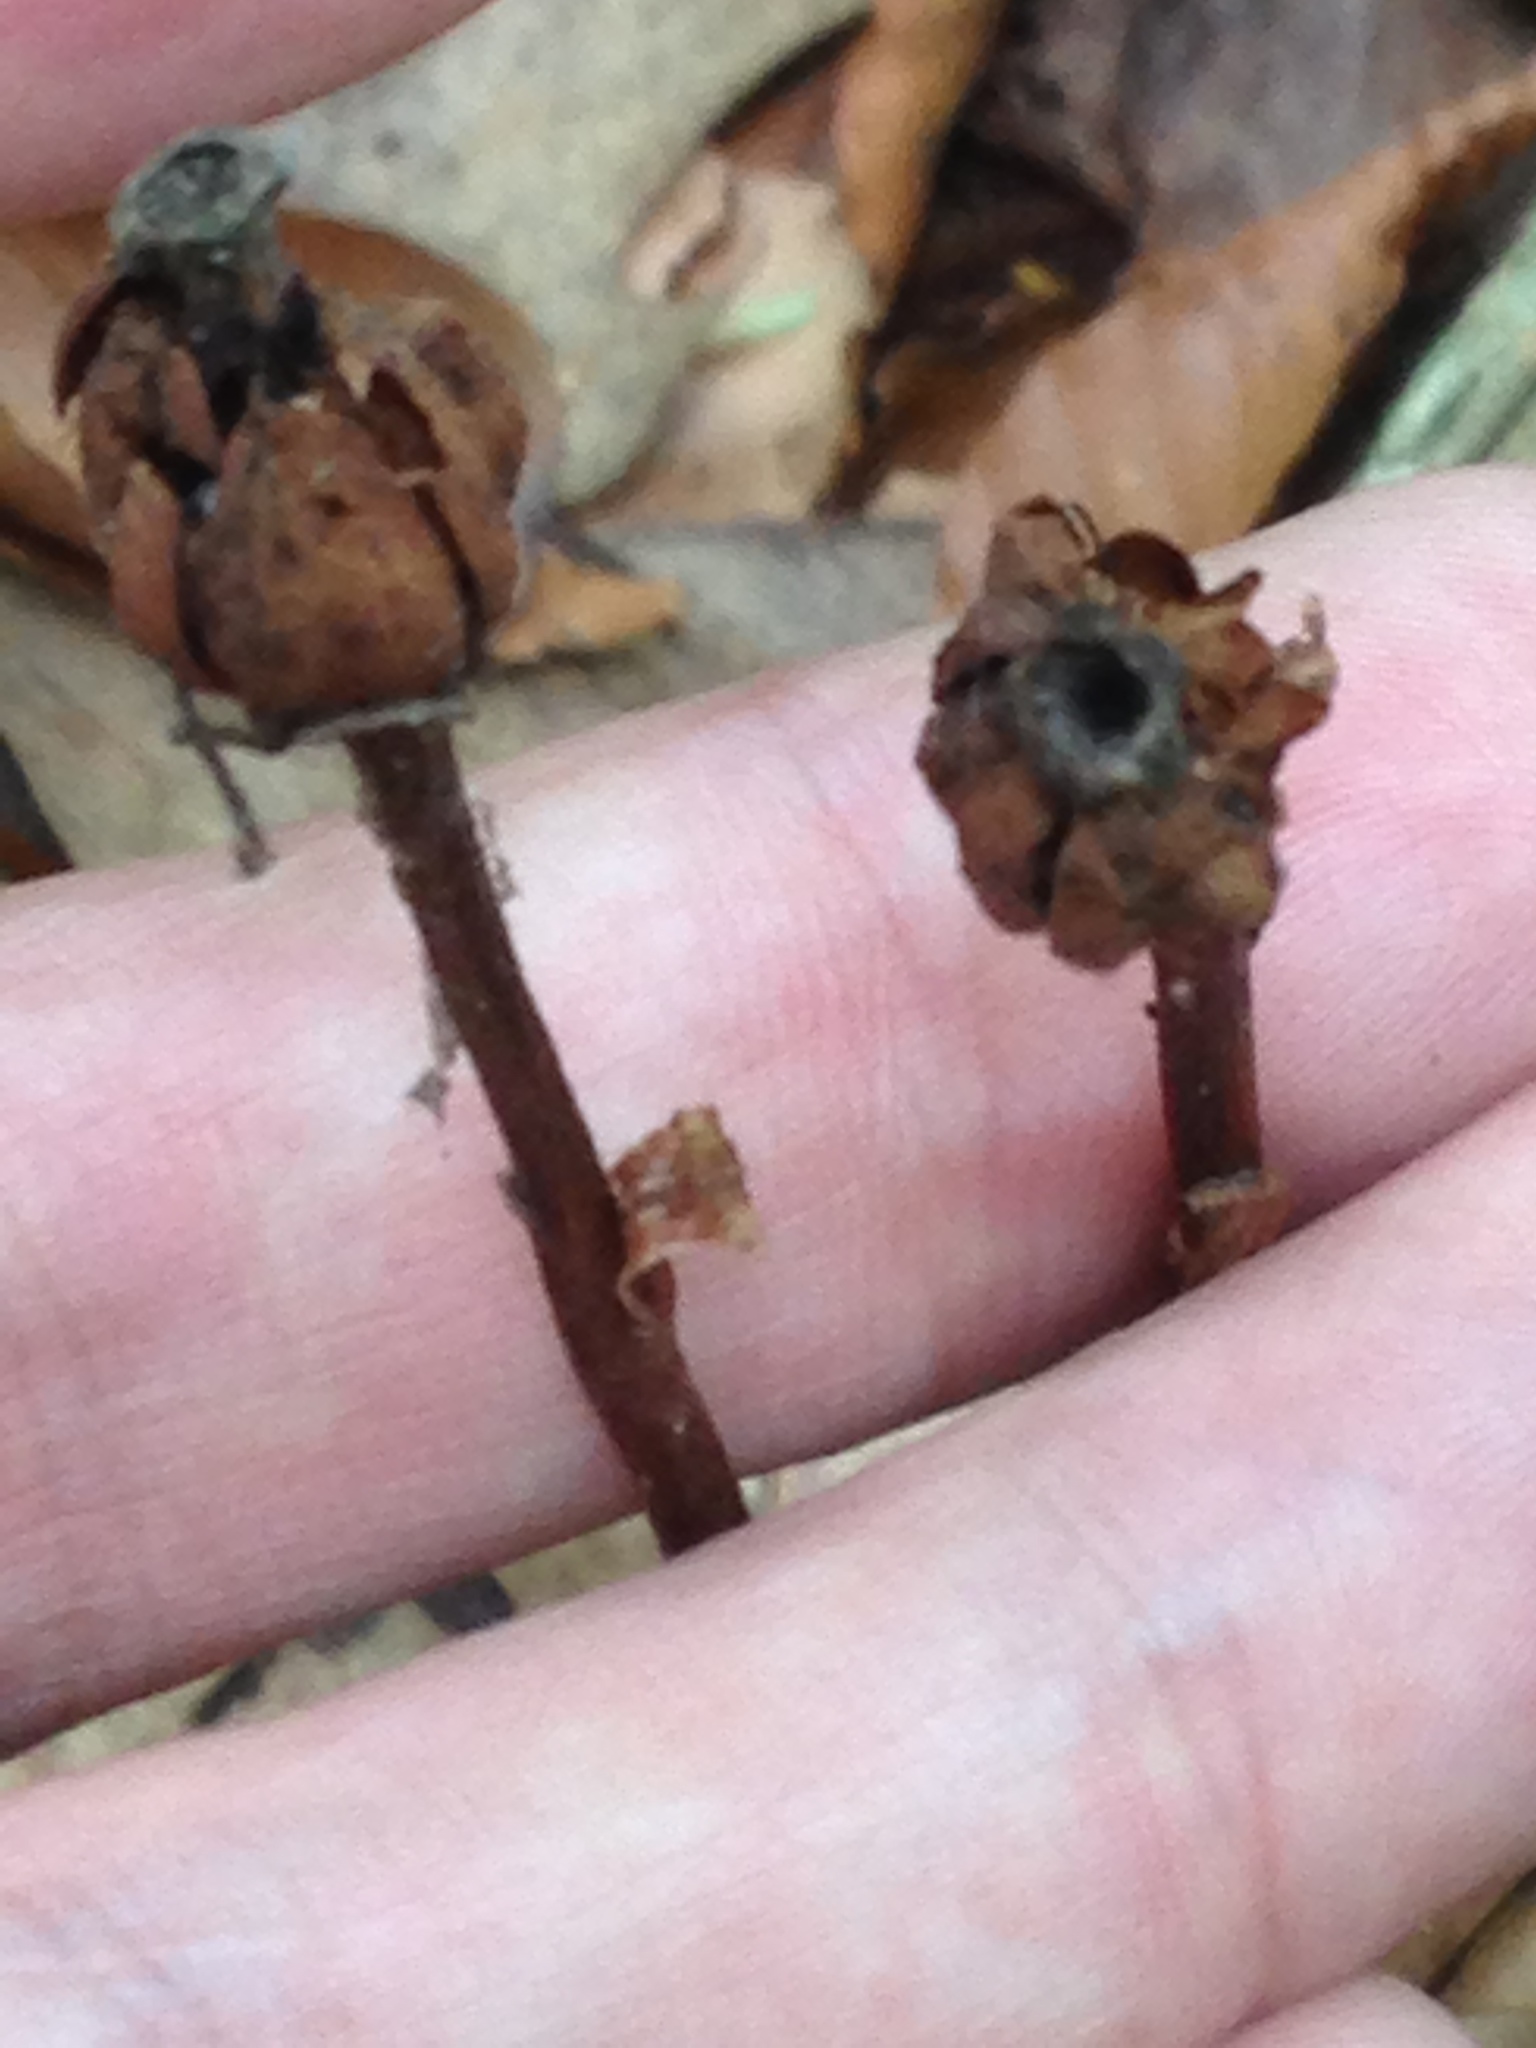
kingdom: Plantae
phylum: Tracheophyta
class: Magnoliopsida
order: Ericales
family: Ericaceae
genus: Monotropa
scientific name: Monotropa uniflora
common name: Convulsion root
